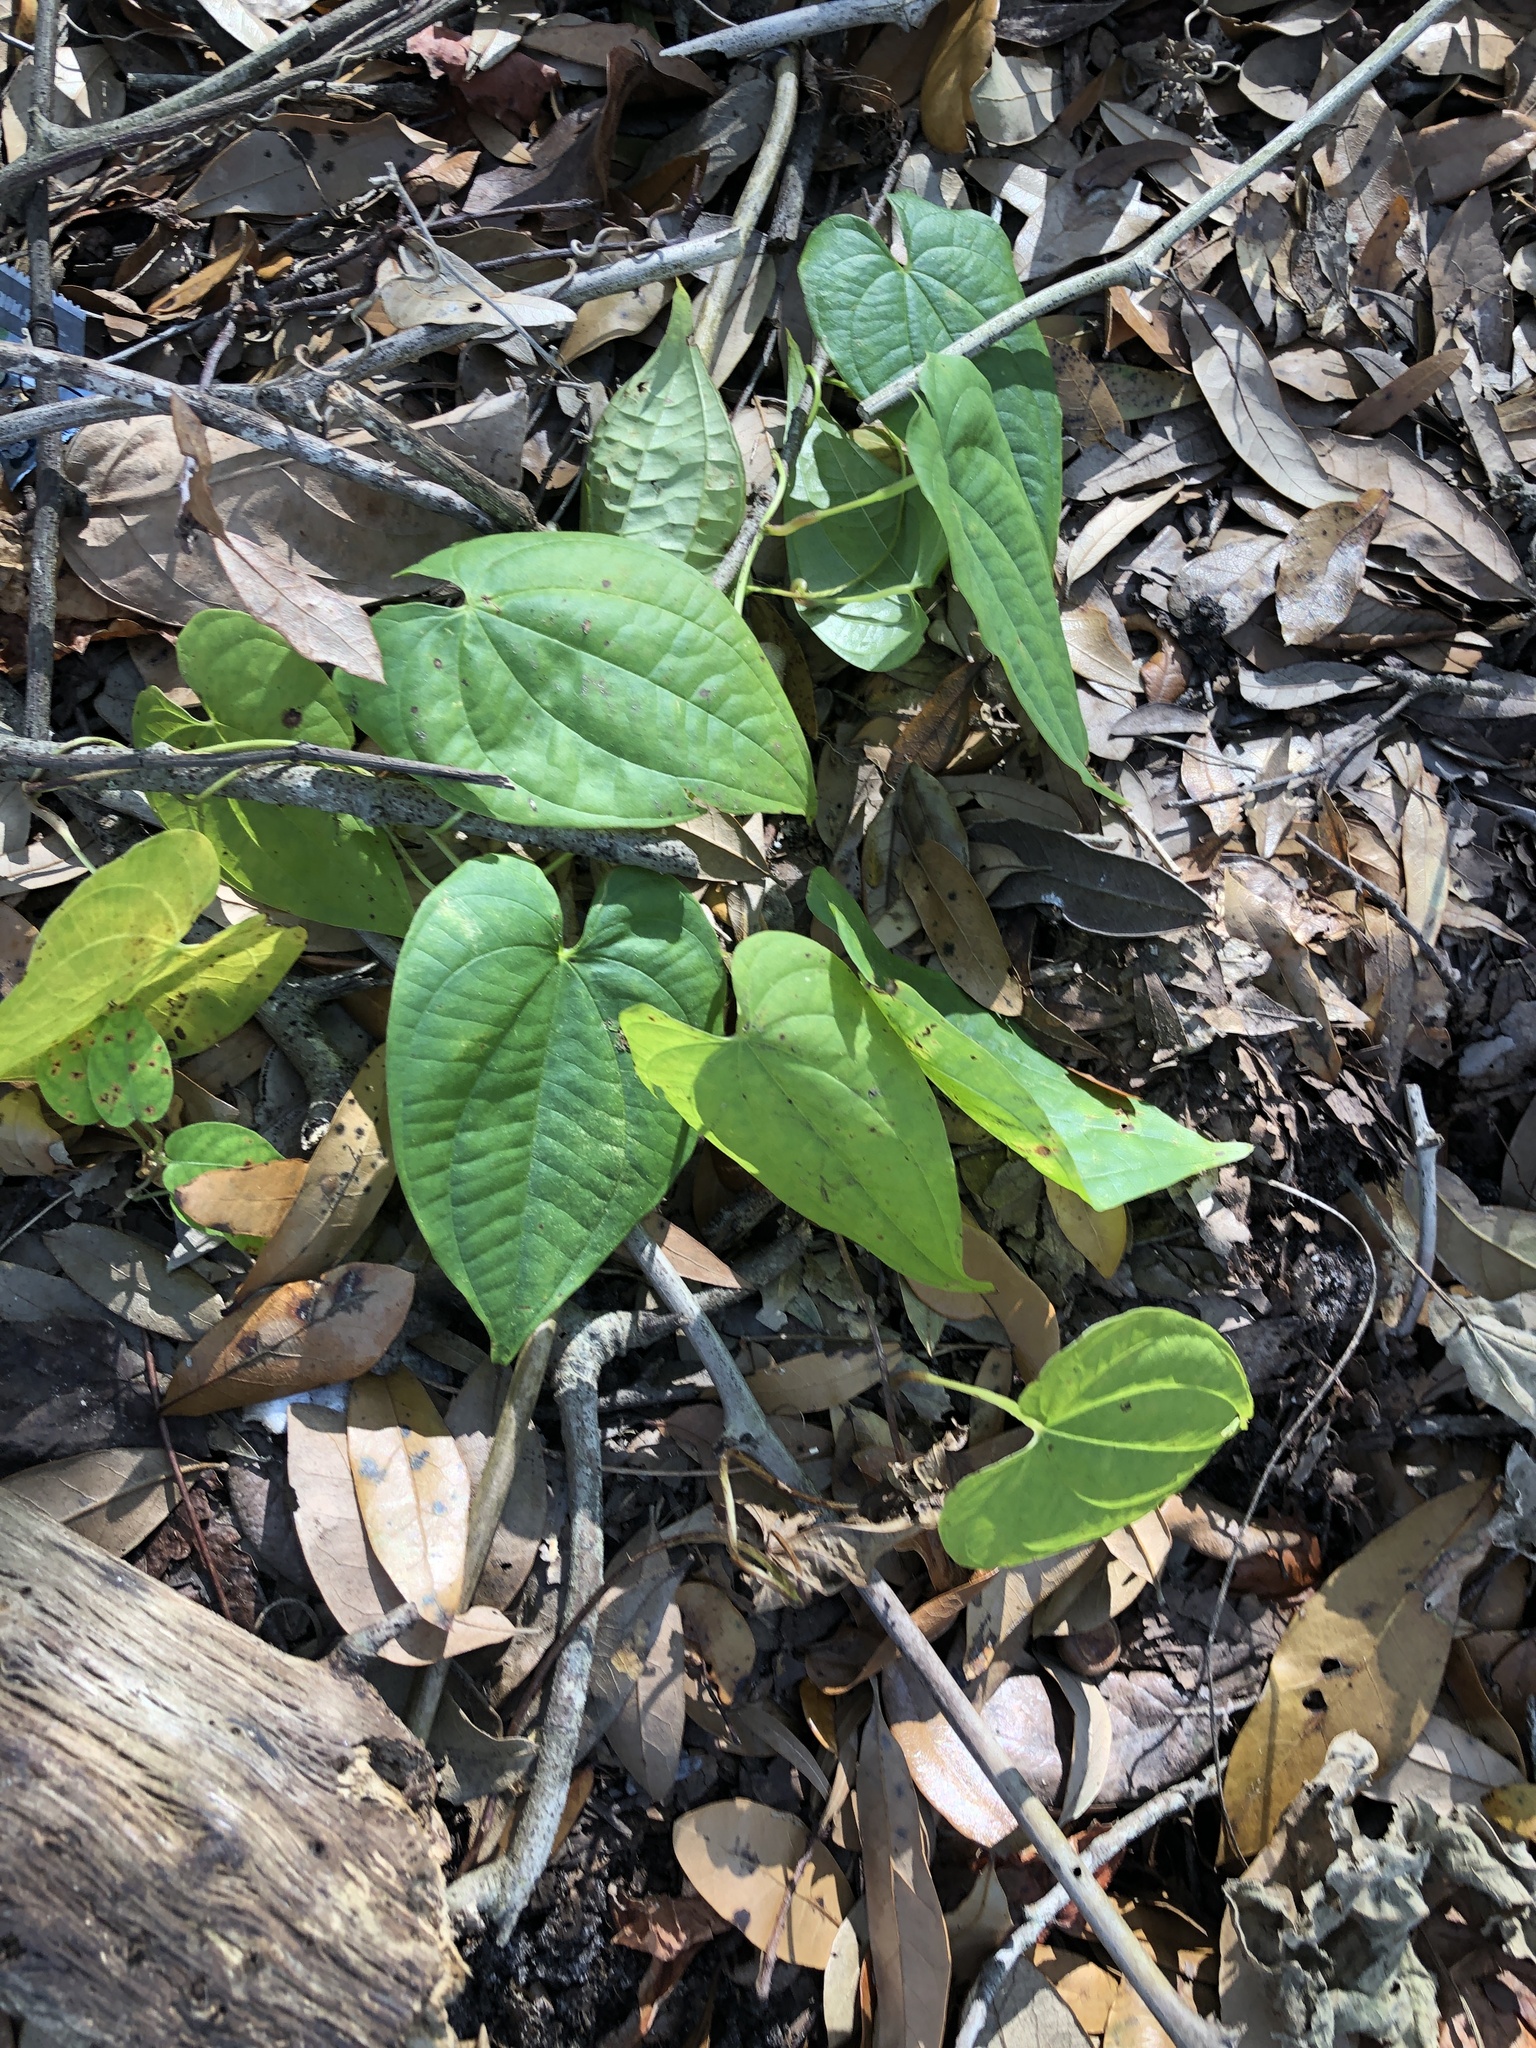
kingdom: Plantae
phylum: Tracheophyta
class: Liliopsida
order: Dioscoreales
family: Dioscoreaceae
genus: Dioscorea
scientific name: Dioscorea bulbifera
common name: Air yam
